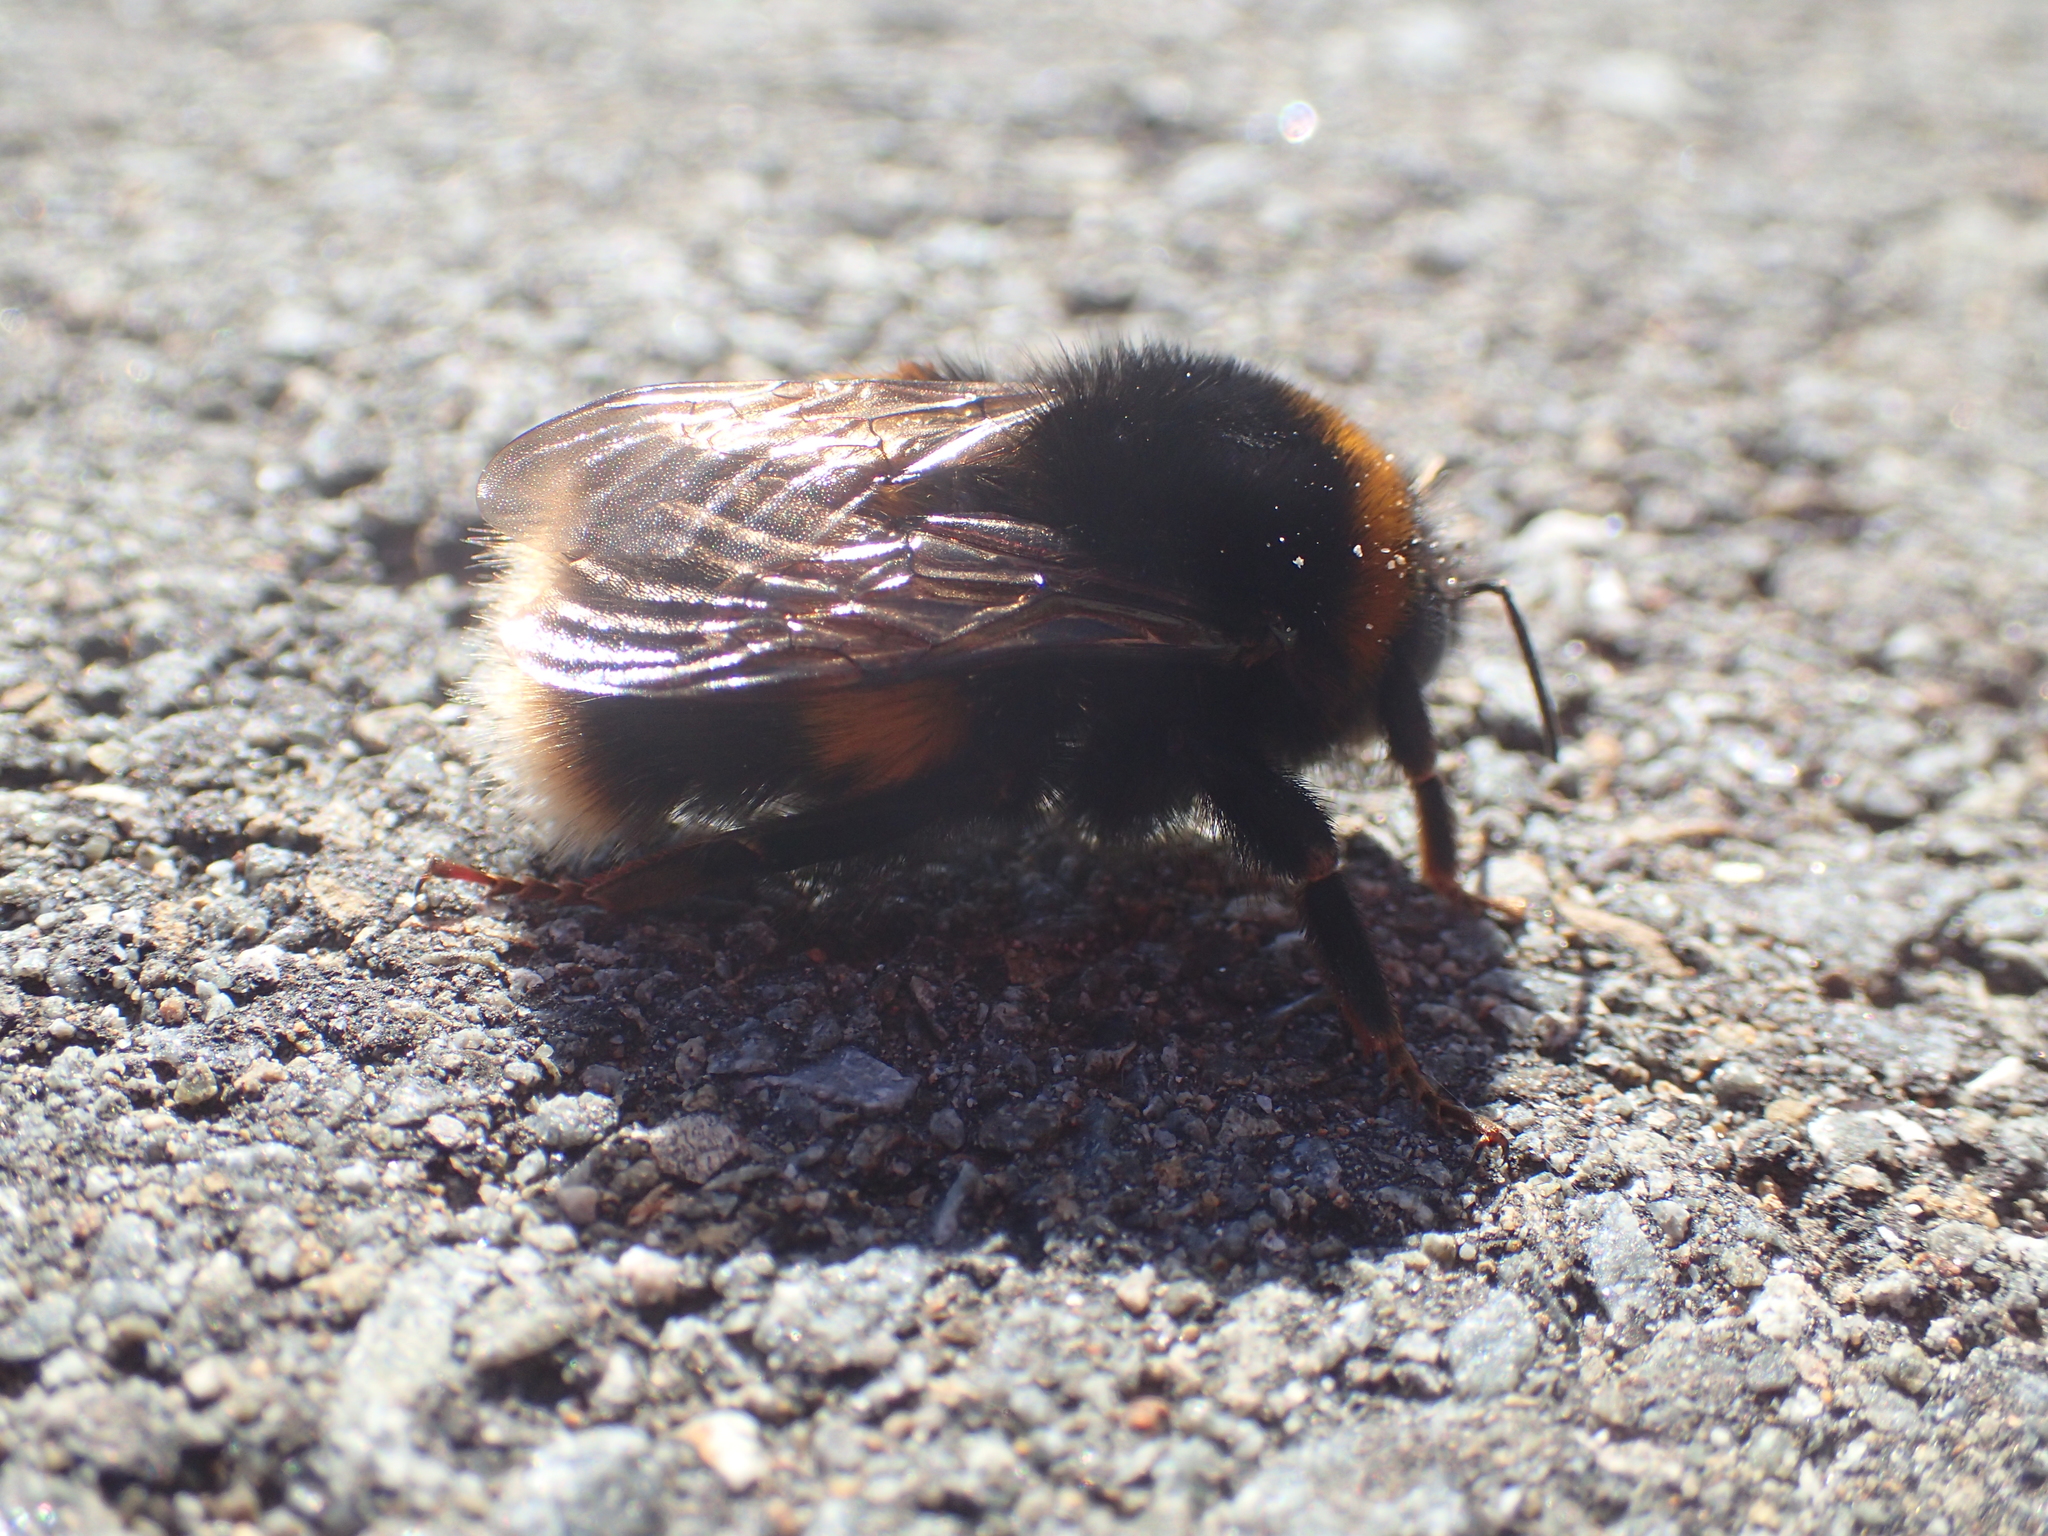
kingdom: Animalia
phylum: Arthropoda
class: Insecta
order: Hymenoptera
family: Apidae
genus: Bombus
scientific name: Bombus terrestris
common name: Buff-tailed bumblebee
